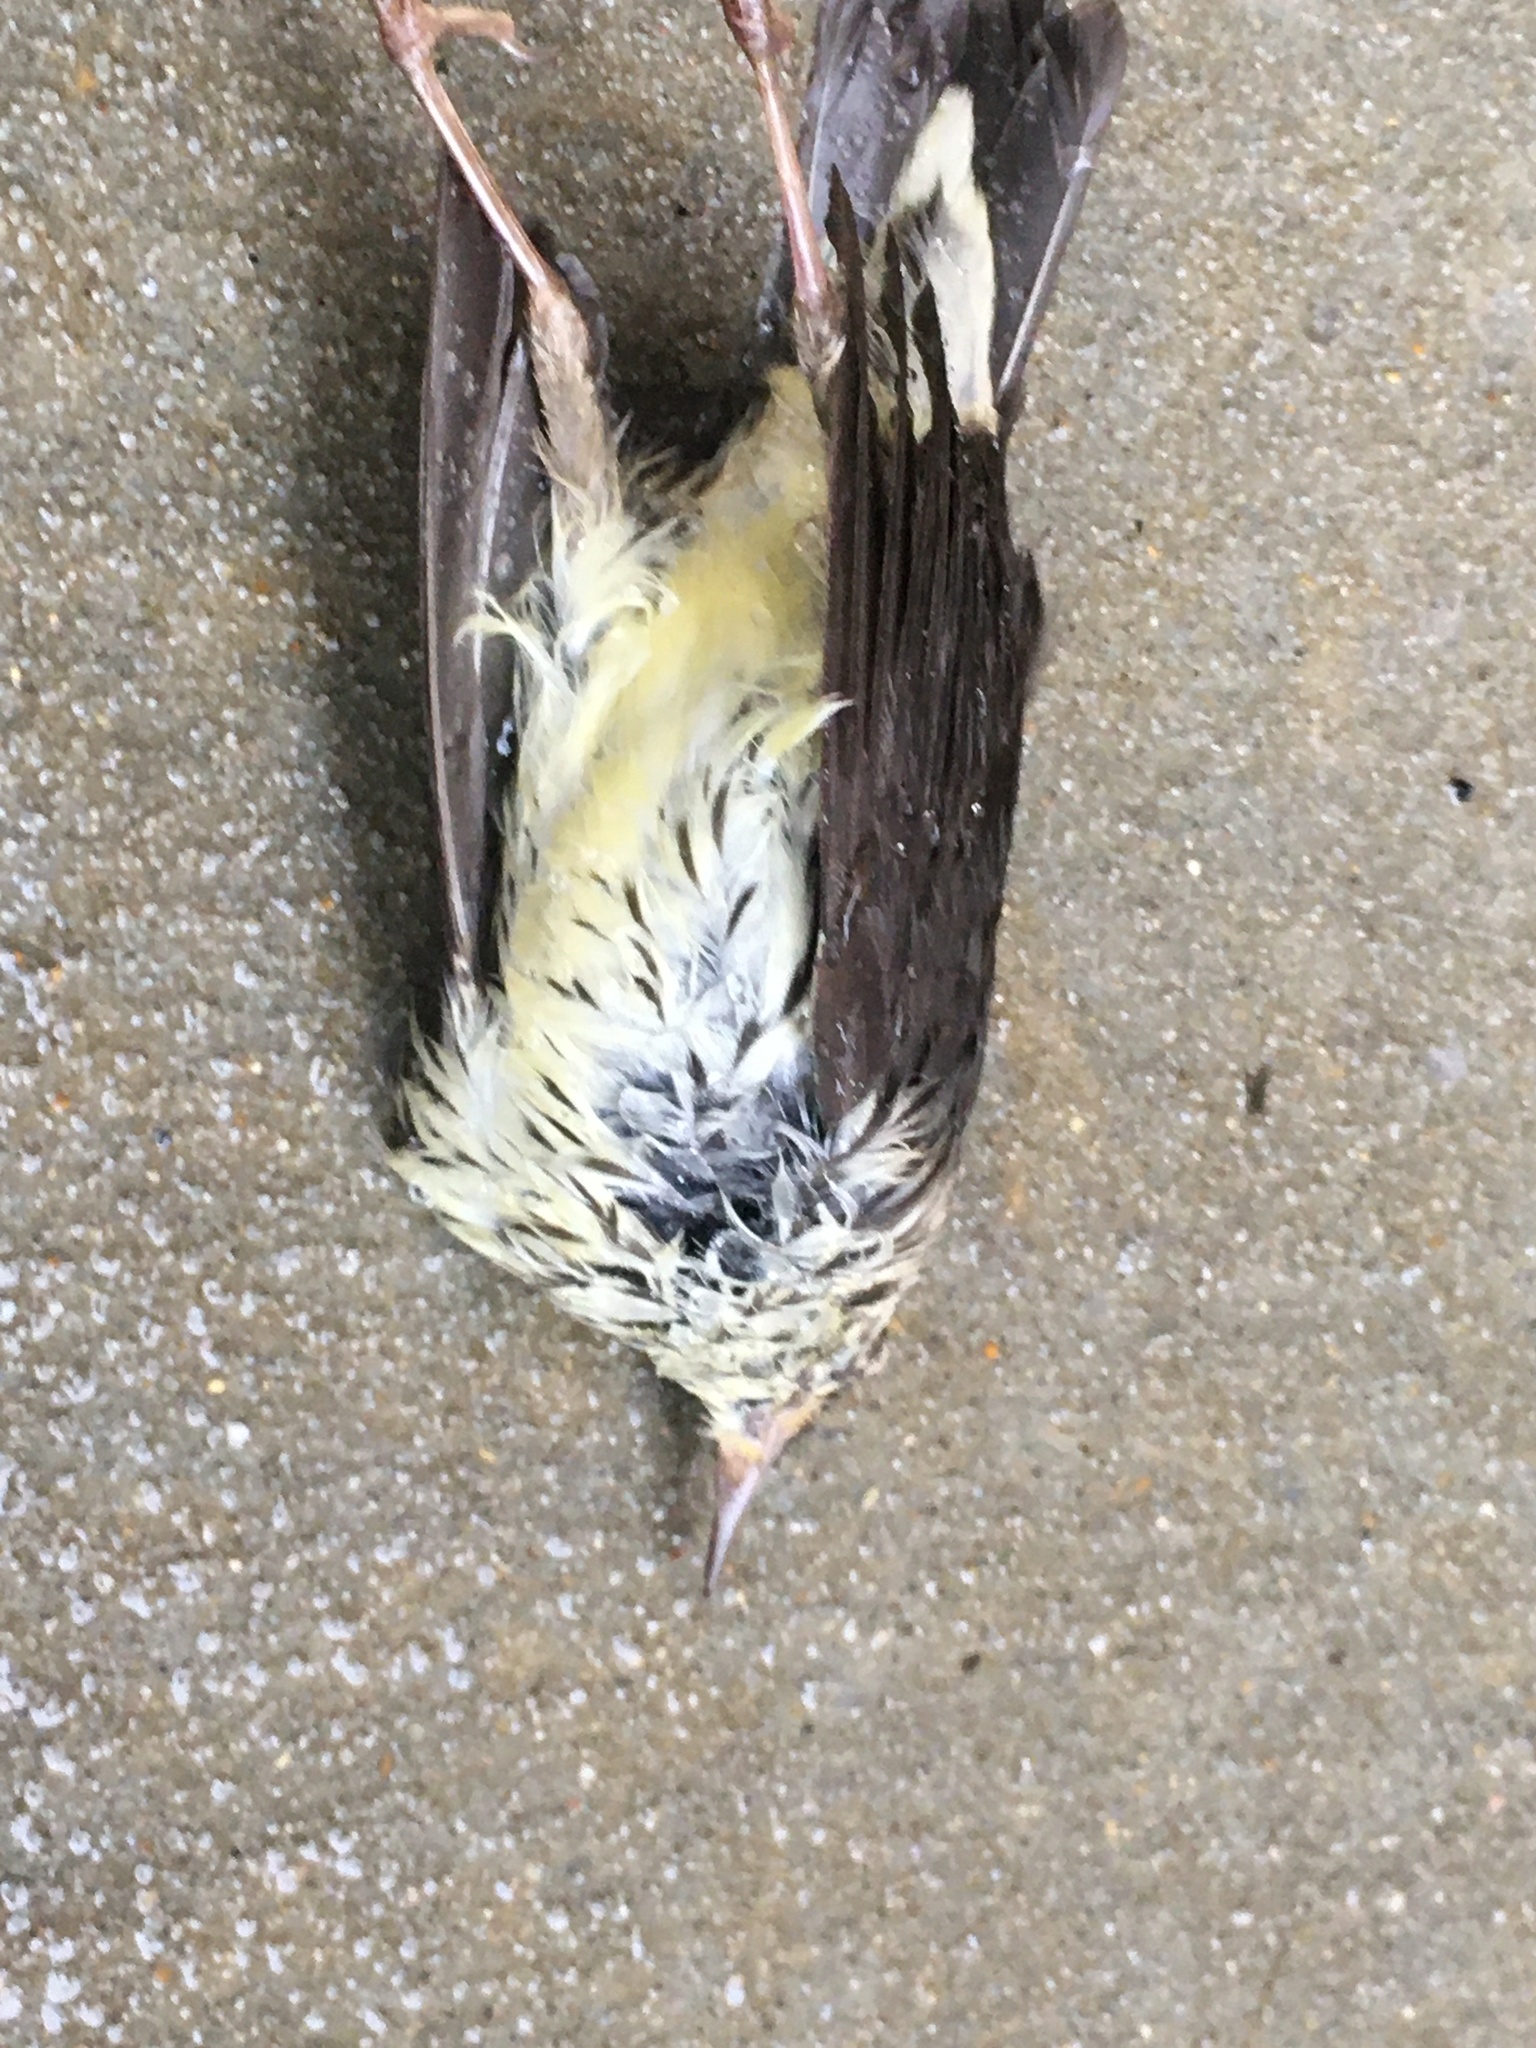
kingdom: Animalia
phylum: Chordata
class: Aves
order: Passeriformes
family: Parulidae
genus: Parkesia
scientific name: Parkesia noveboracensis
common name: Northern waterthrush
